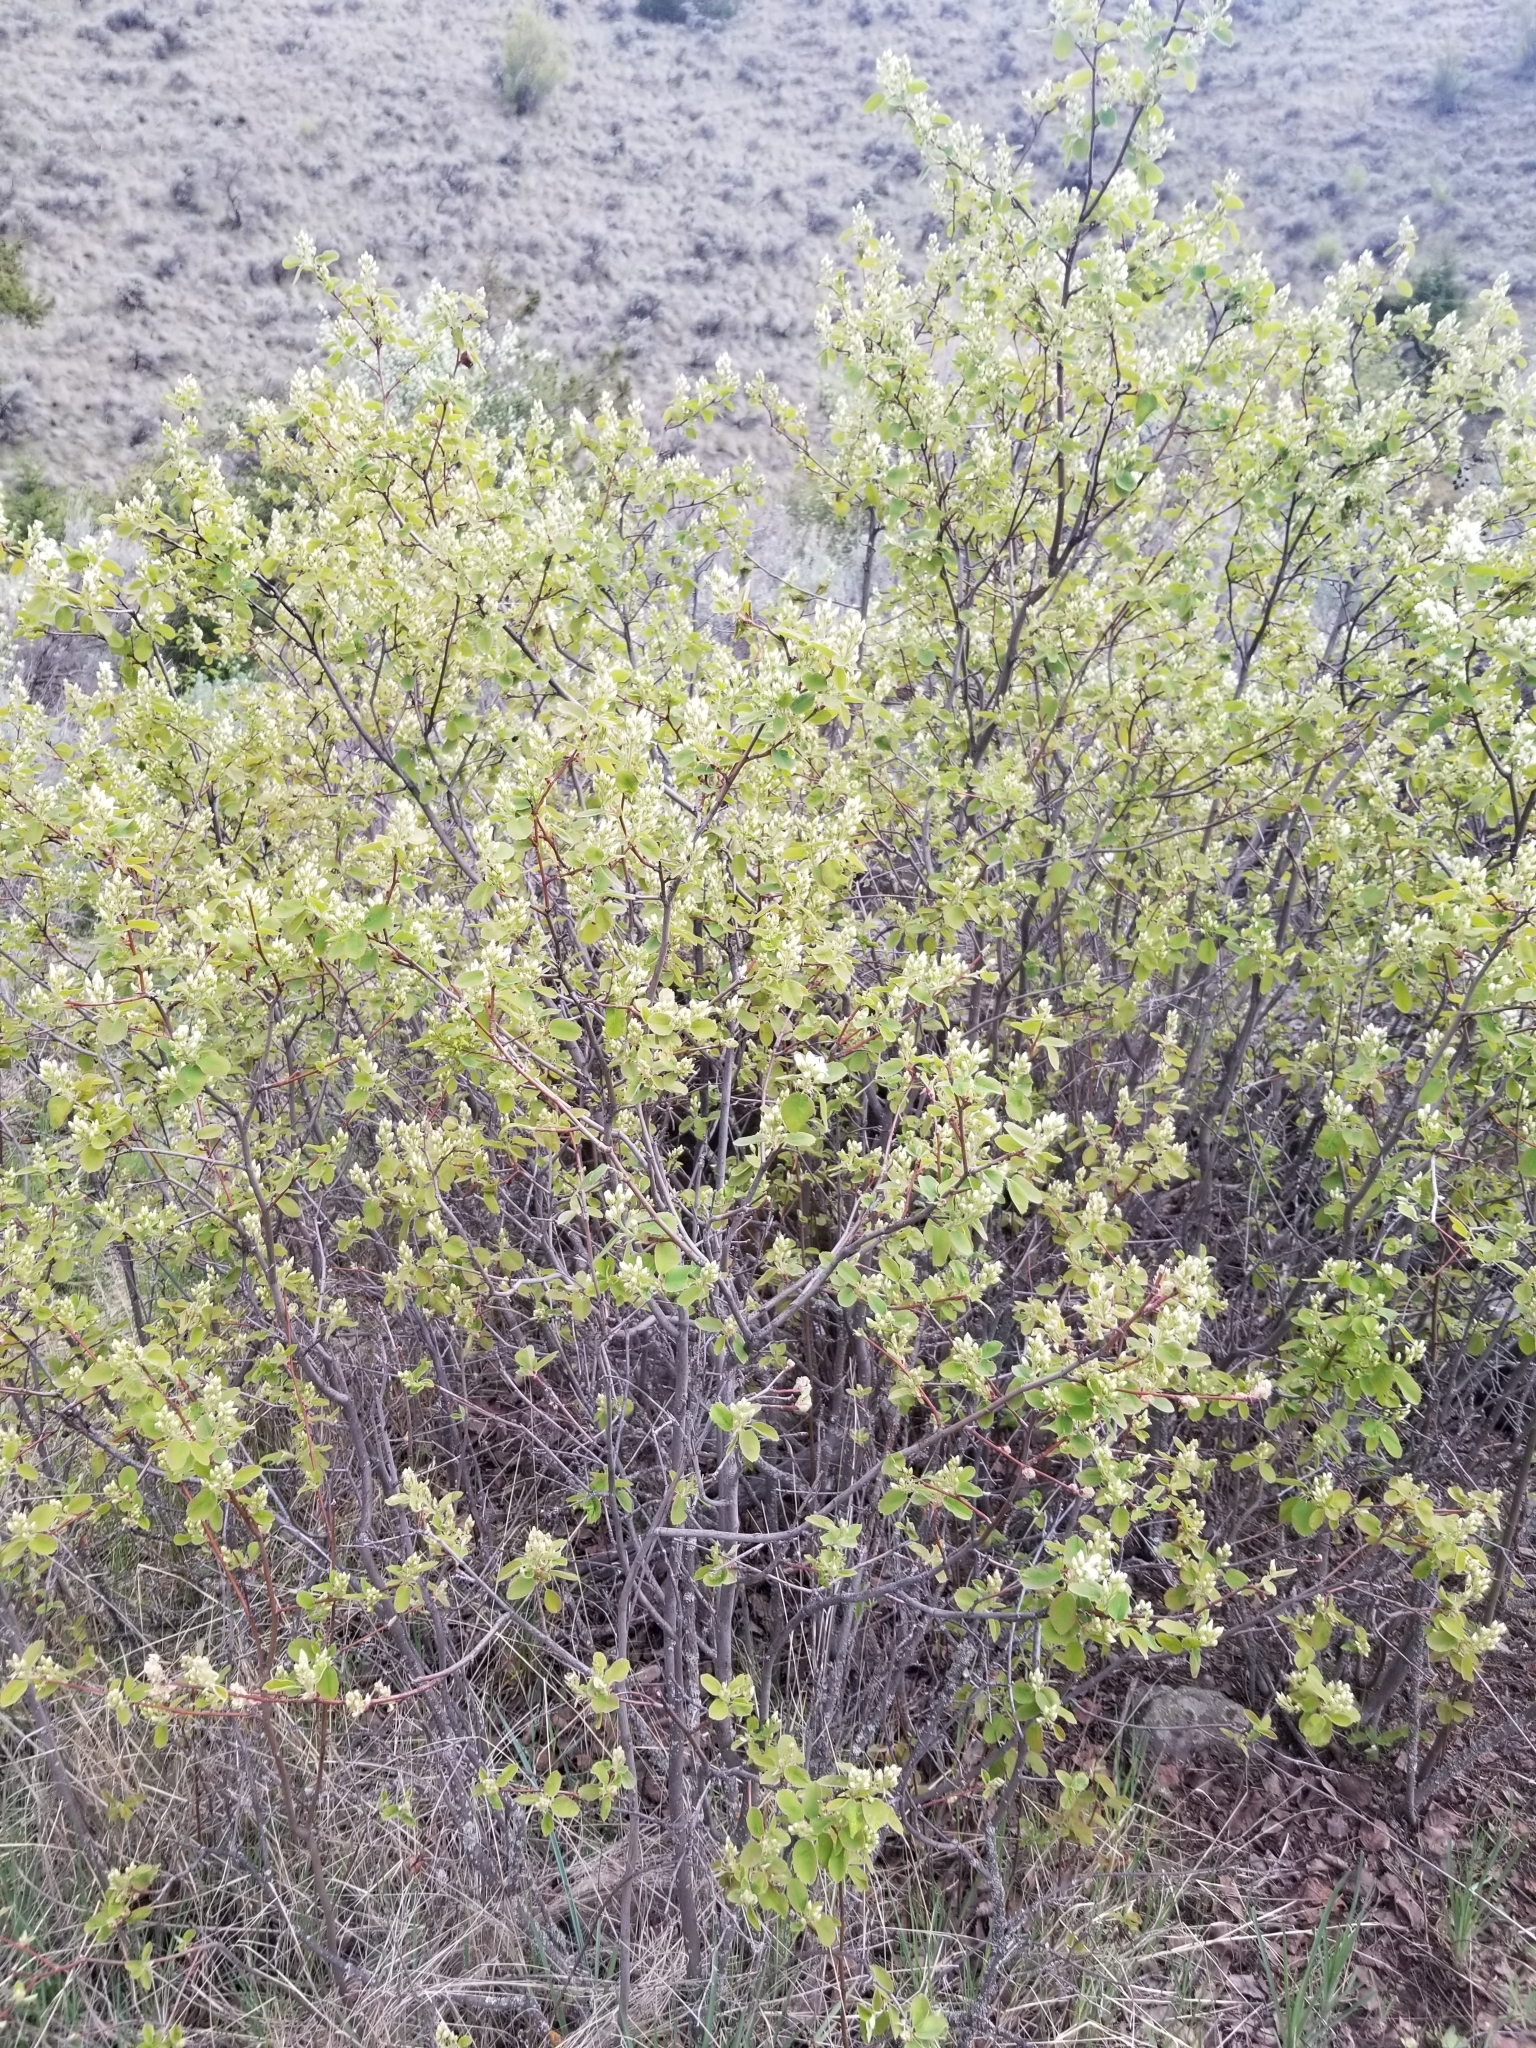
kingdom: Plantae
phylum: Tracheophyta
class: Magnoliopsida
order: Rosales
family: Rosaceae
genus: Amelanchier
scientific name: Amelanchier alnifolia
